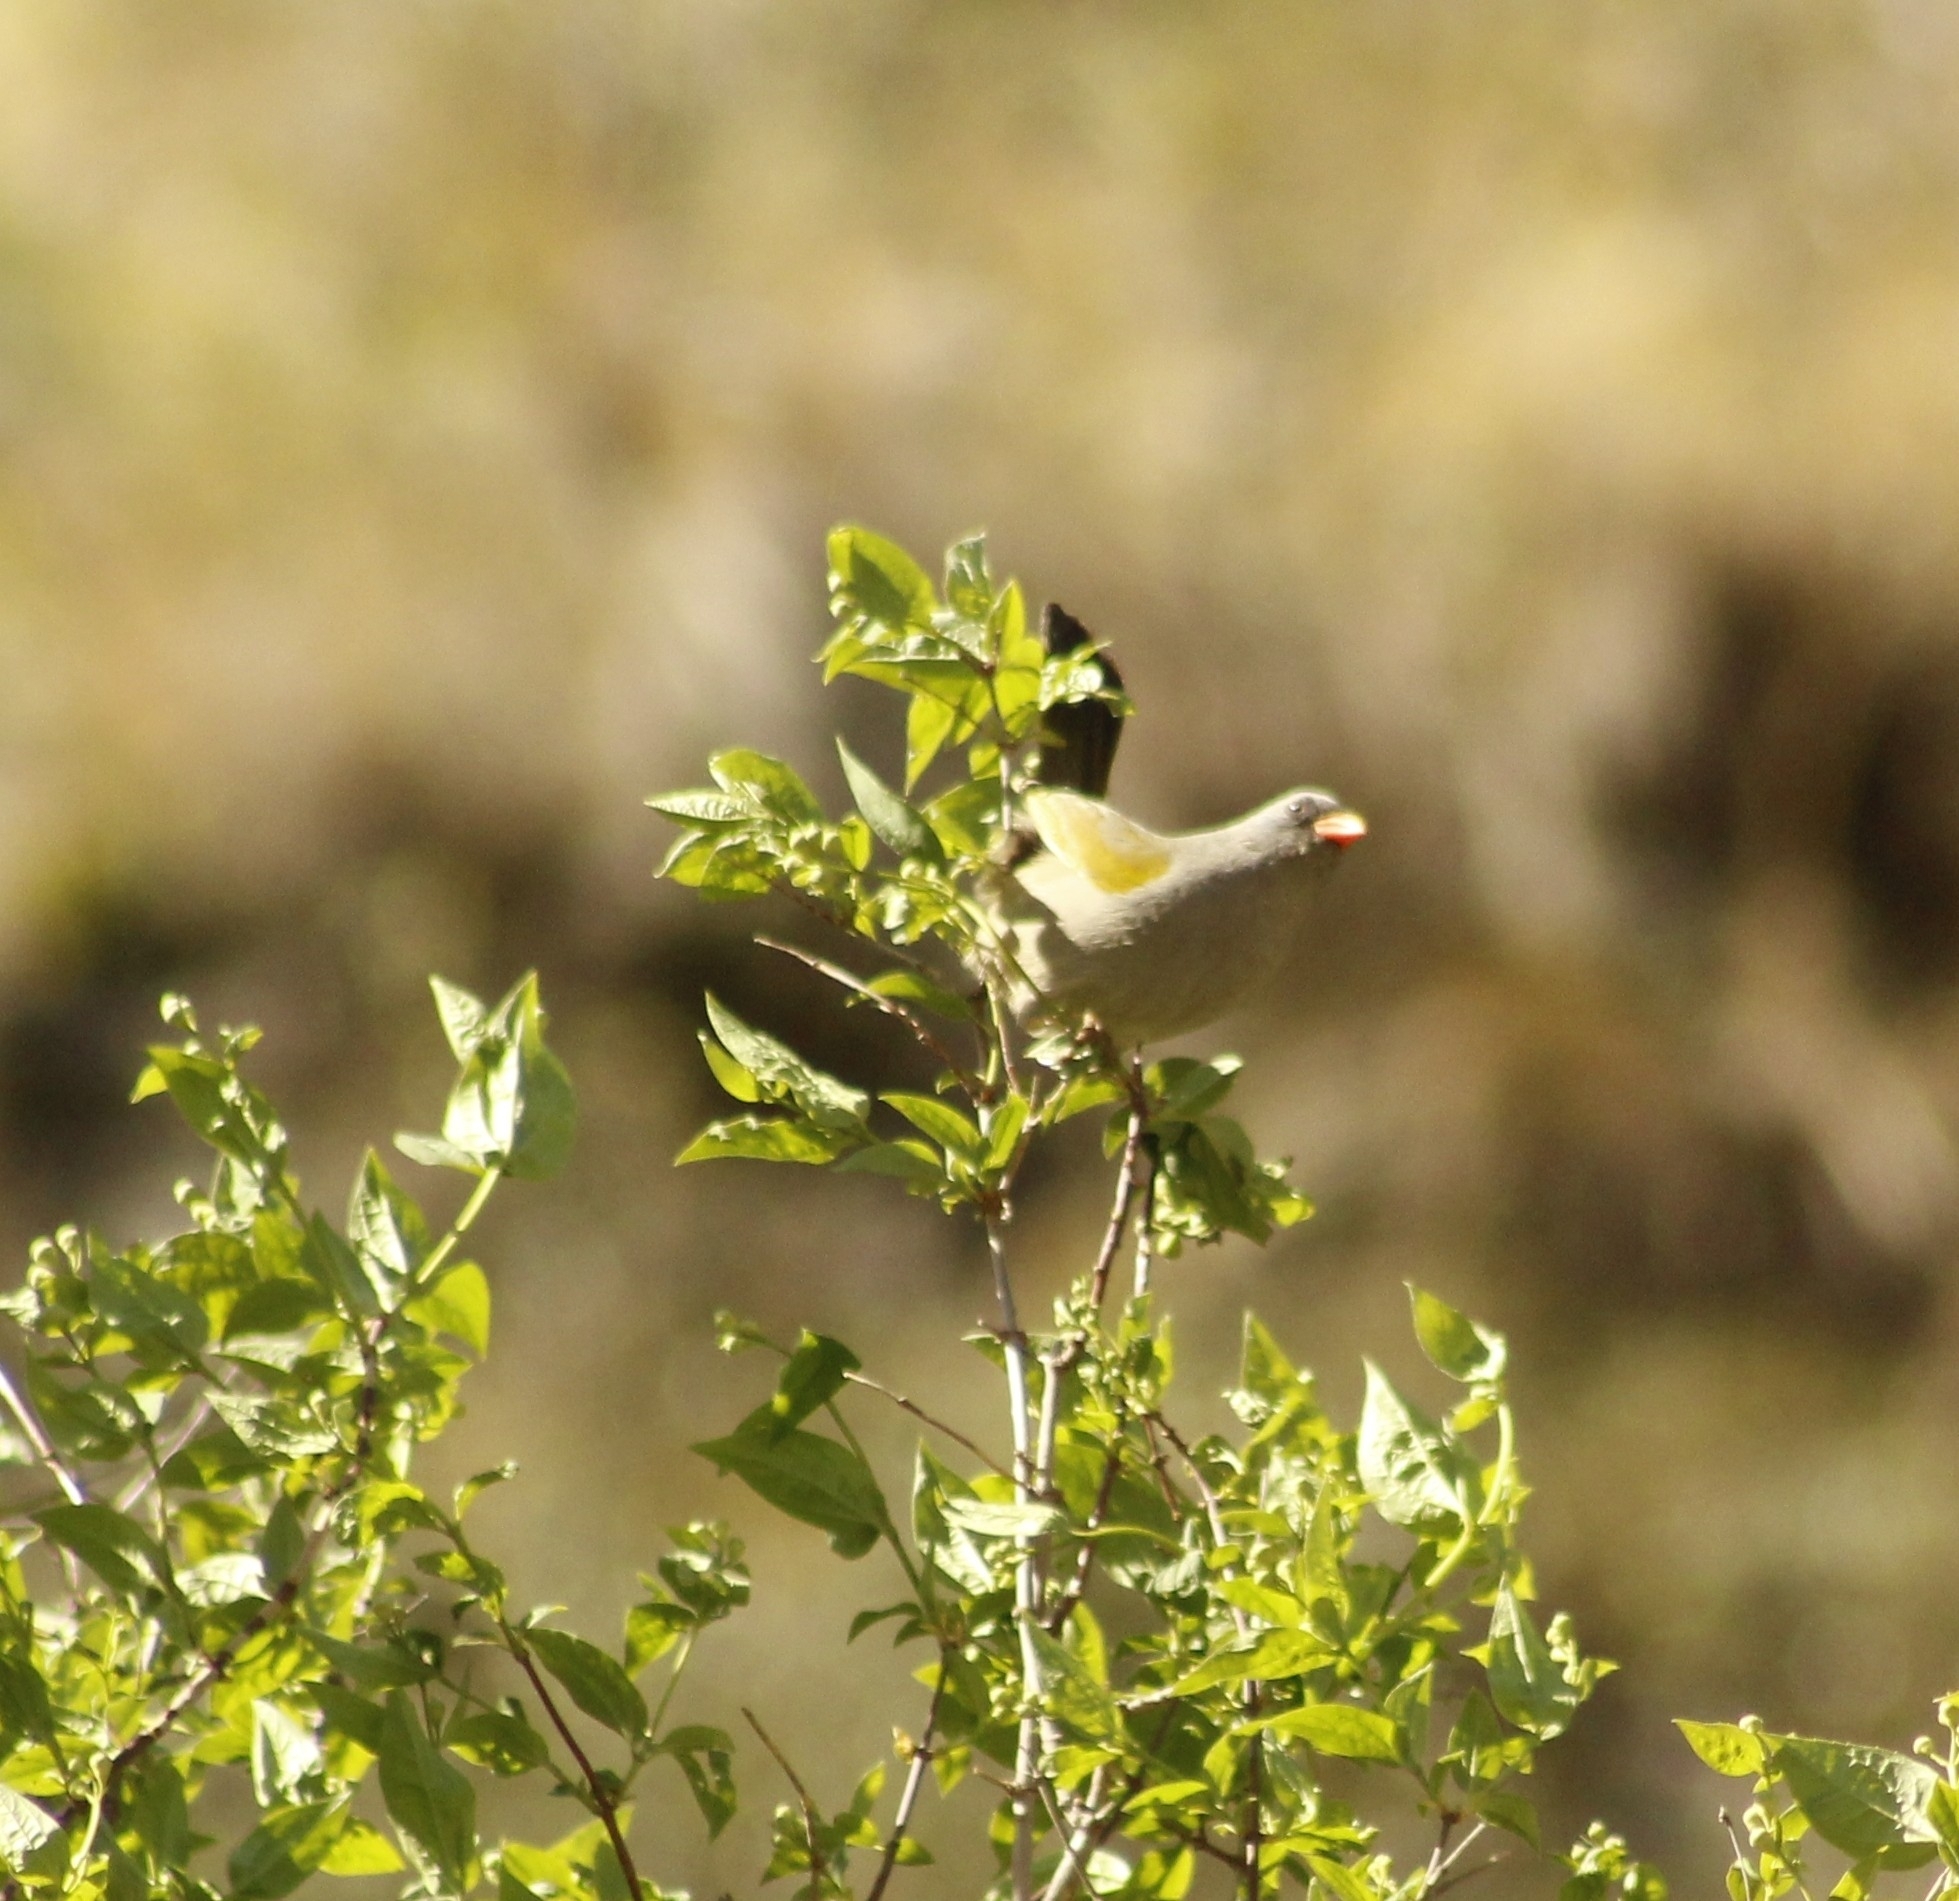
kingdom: Animalia
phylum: Chordata
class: Aves
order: Passeriformes
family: Thraupidae
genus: Embernagra
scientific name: Embernagra platensis
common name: Pampa finch
